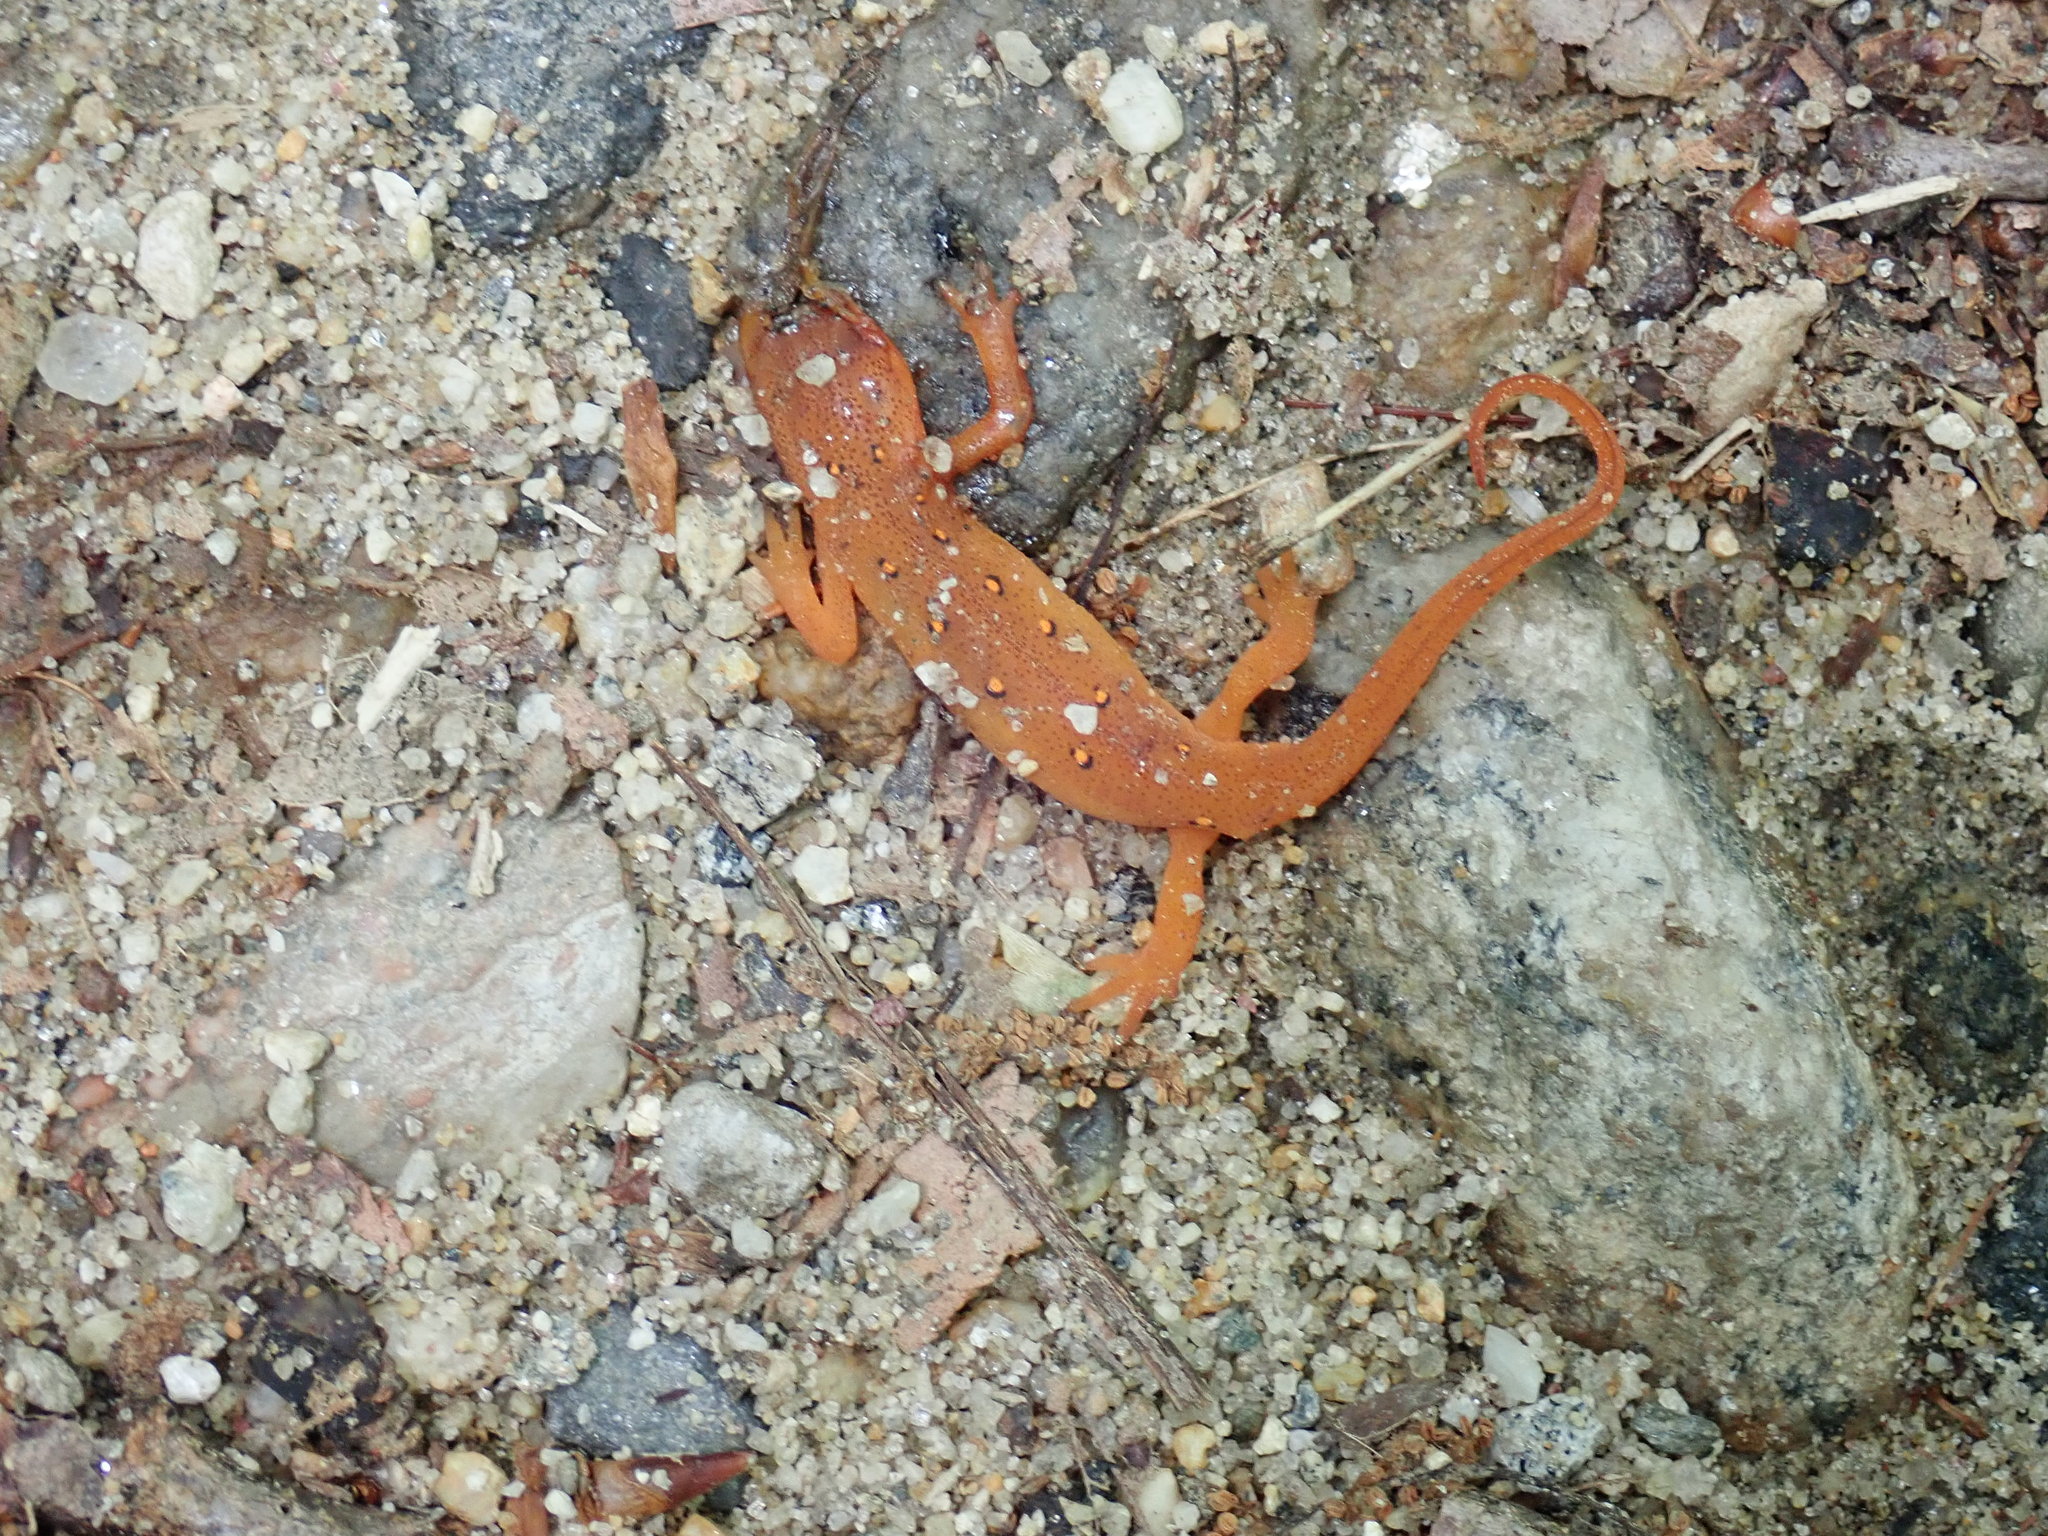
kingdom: Animalia
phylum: Chordata
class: Amphibia
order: Caudata
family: Salamandridae
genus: Notophthalmus
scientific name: Notophthalmus viridescens
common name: Eastern newt
